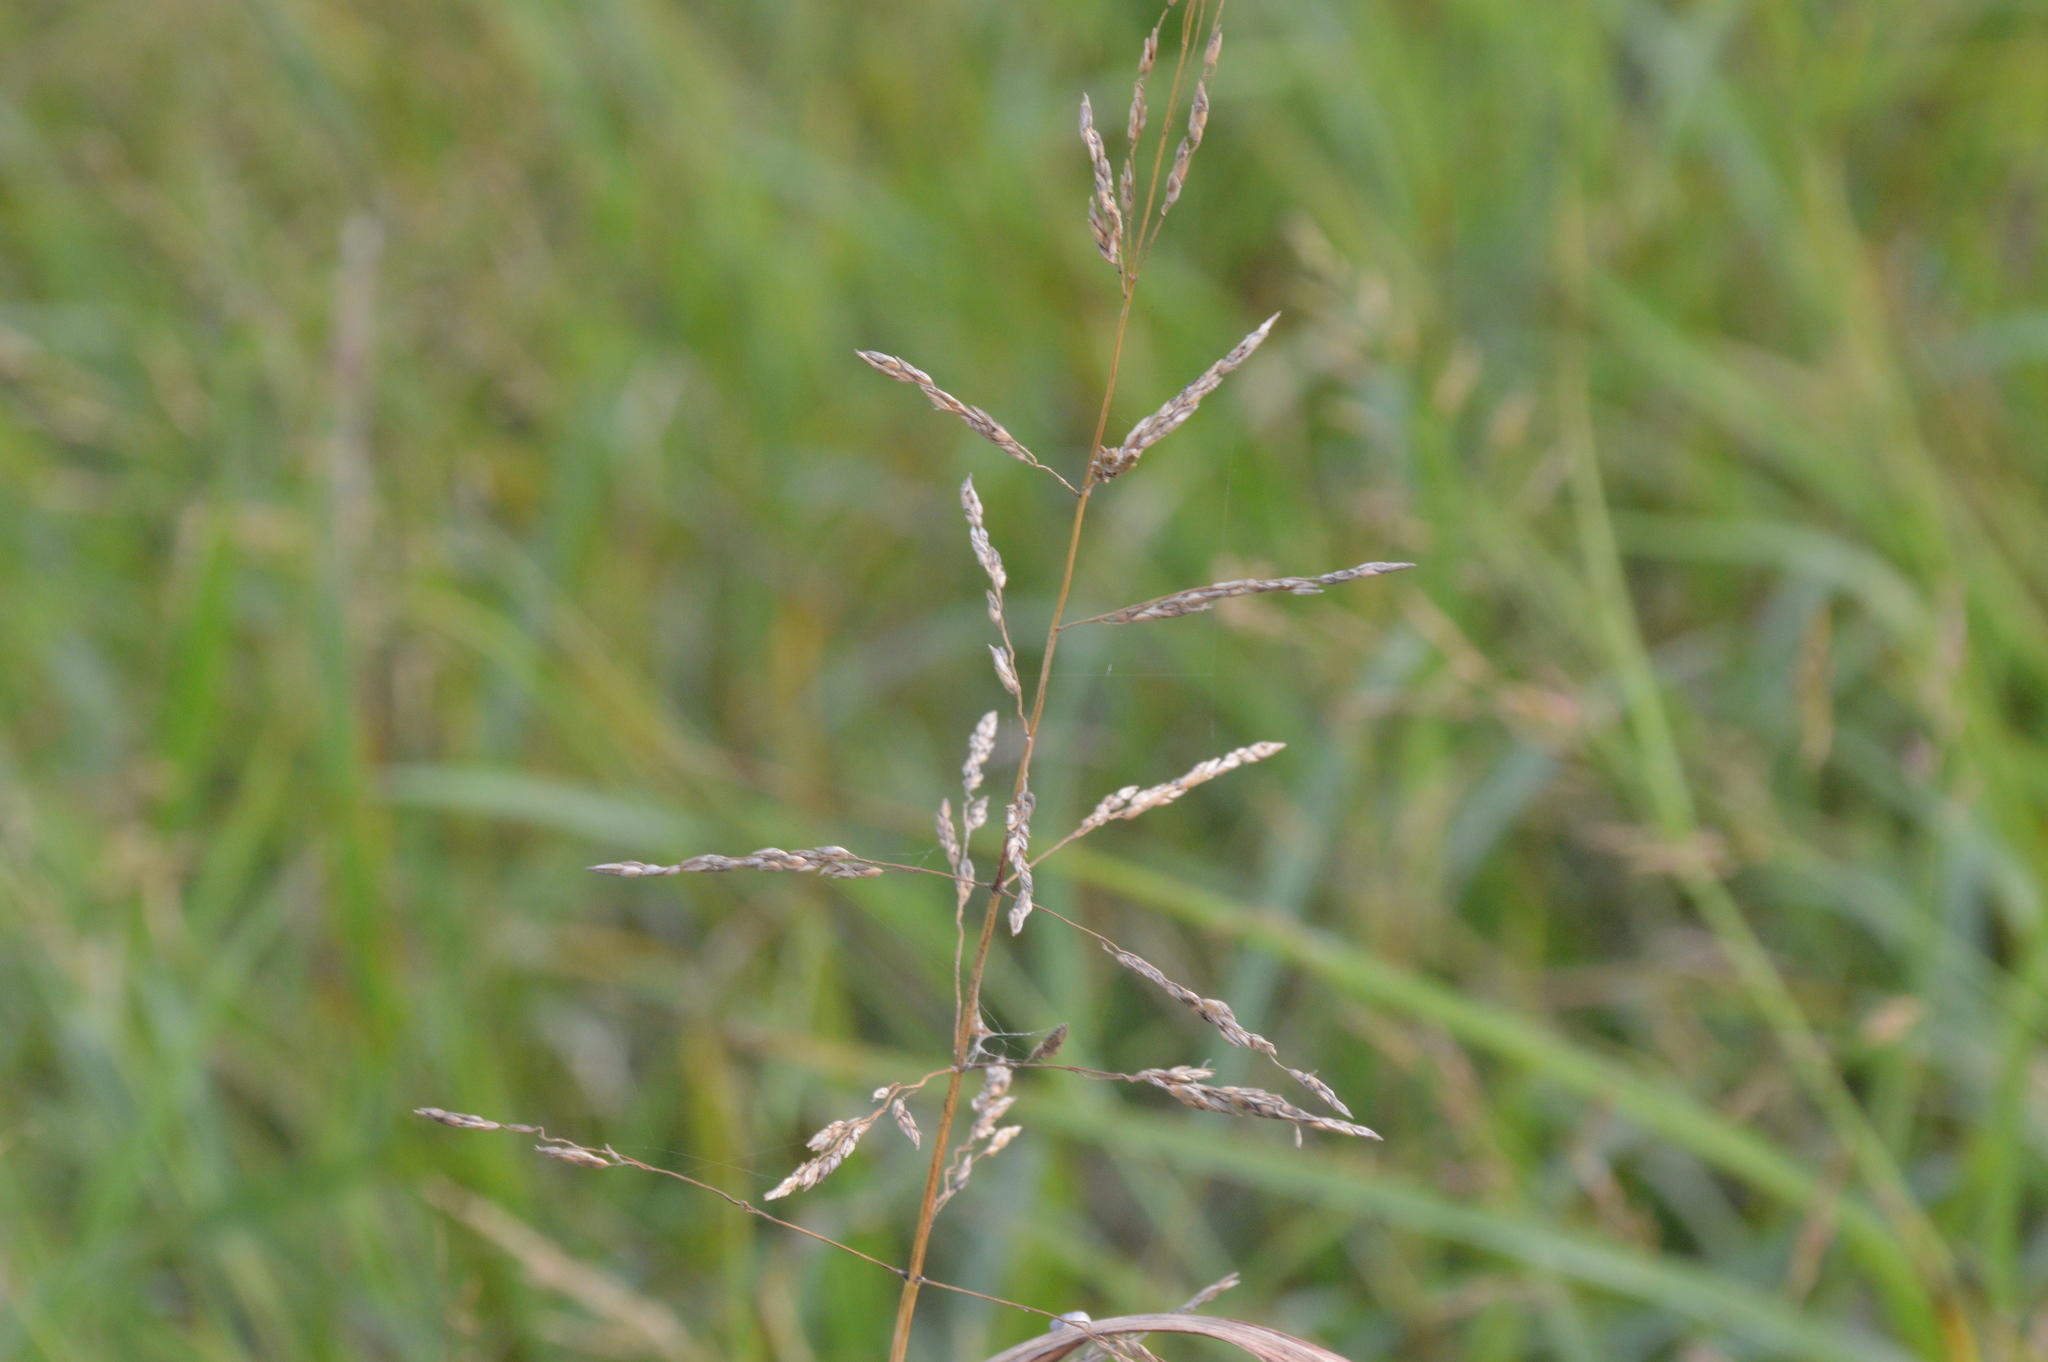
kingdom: Plantae
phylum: Tracheophyta
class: Liliopsida
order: Poales
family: Poaceae
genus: Sorghum
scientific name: Sorghum halepense
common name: Johnson-grass
